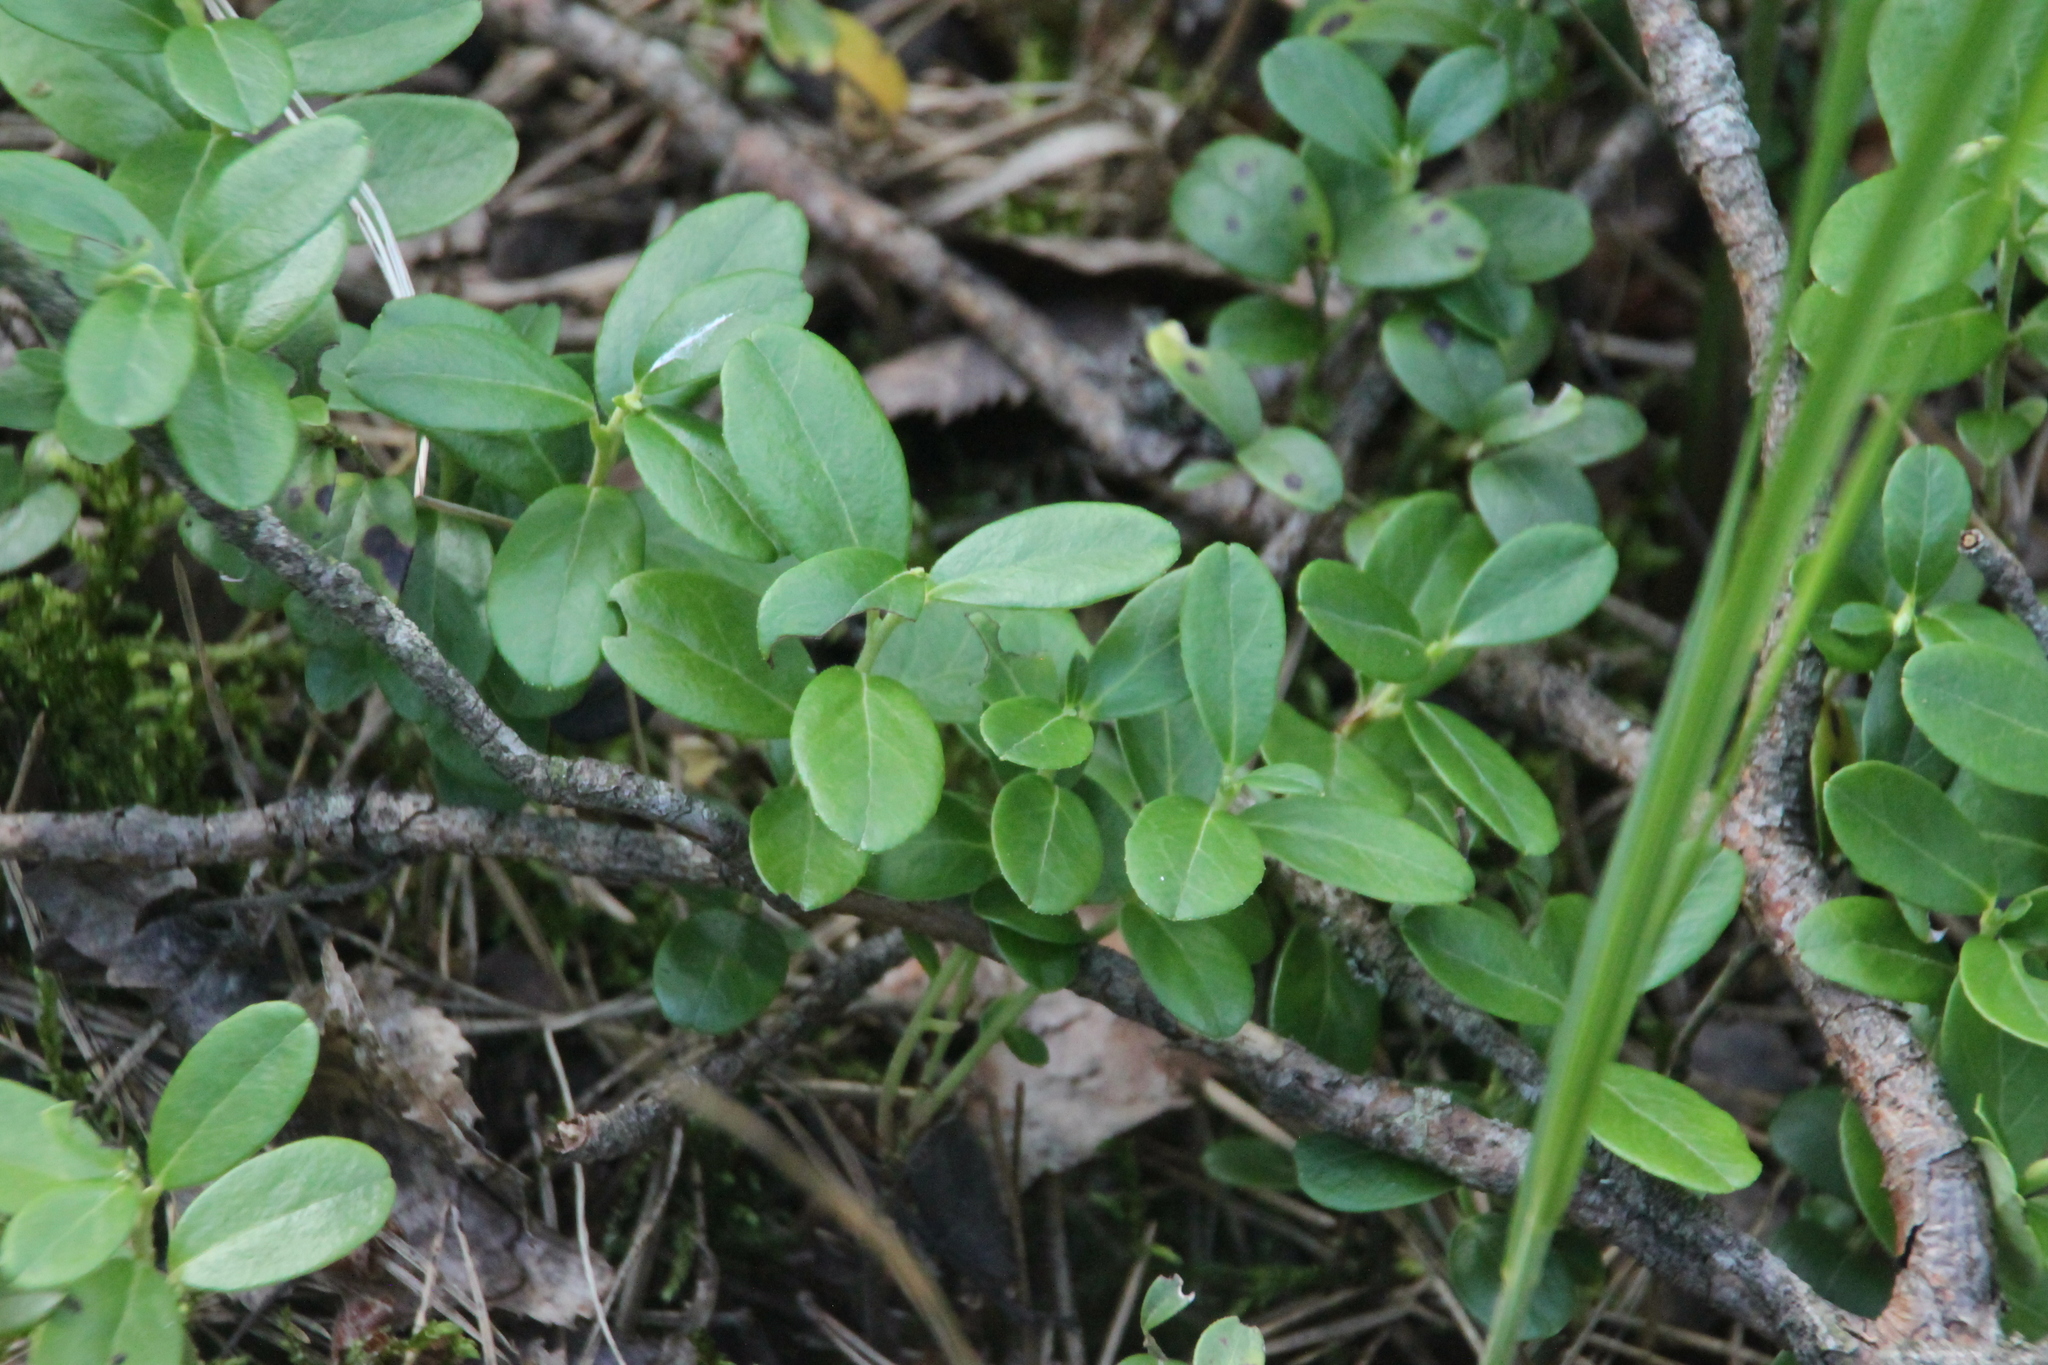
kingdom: Plantae
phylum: Tracheophyta
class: Magnoliopsida
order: Ericales
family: Ericaceae
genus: Vaccinium
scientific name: Vaccinium vitis-idaea
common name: Cowberry
